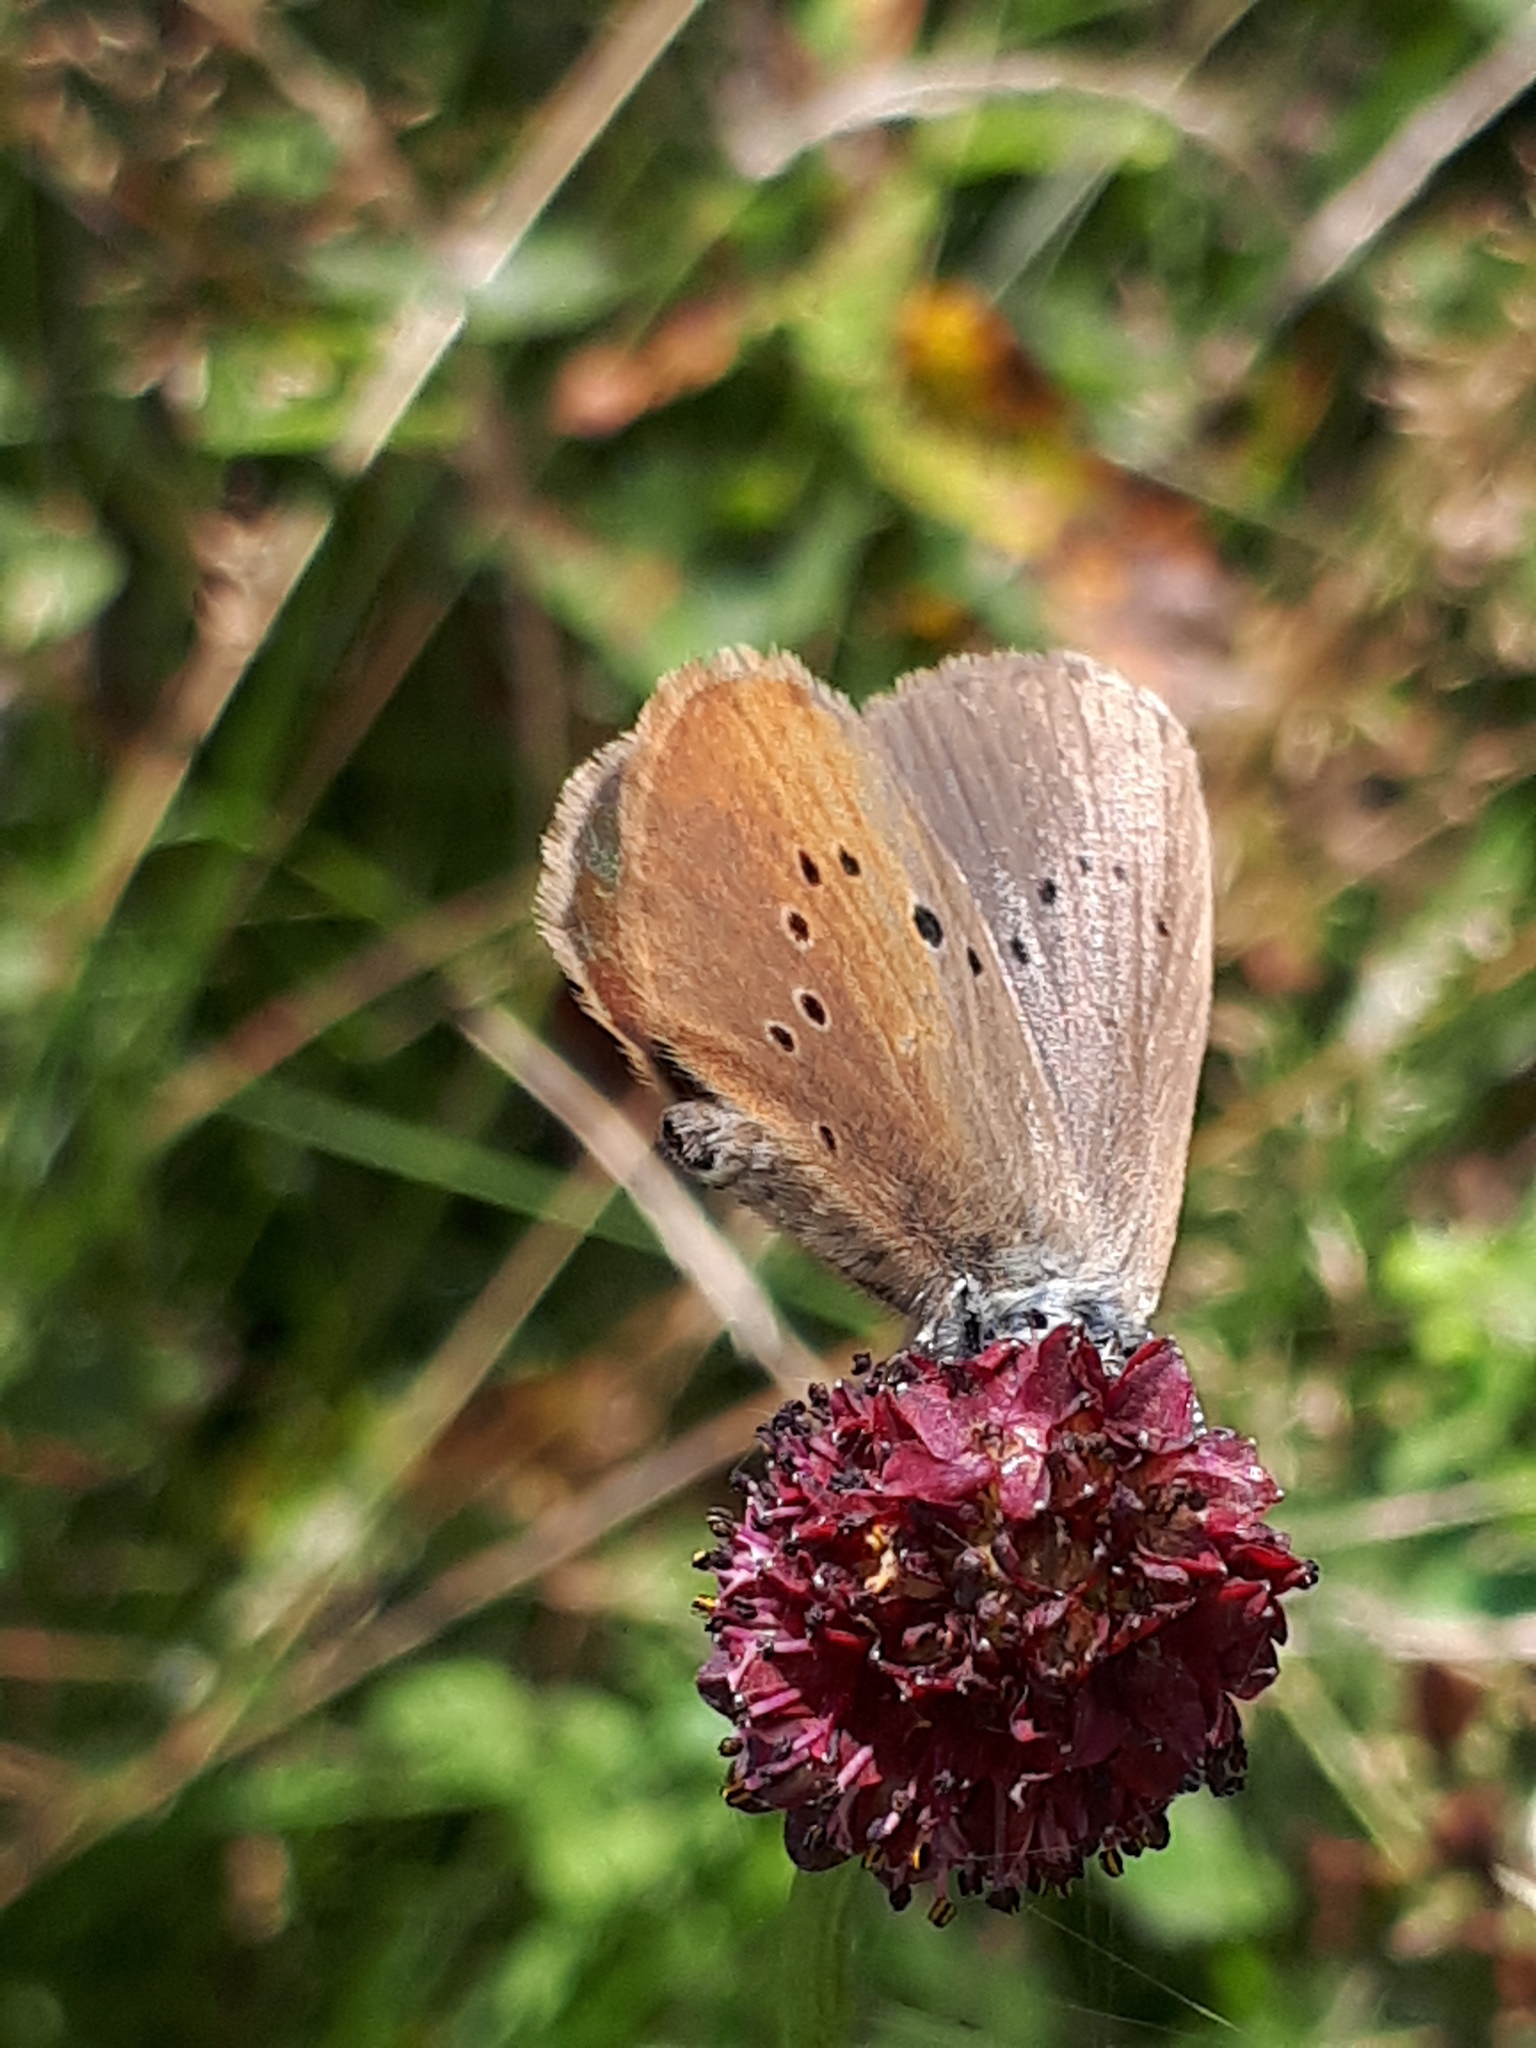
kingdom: Animalia
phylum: Arthropoda
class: Insecta
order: Lepidoptera
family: Lycaenidae
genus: Maculinea
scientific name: Maculinea nausithous
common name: Dusky large blue
